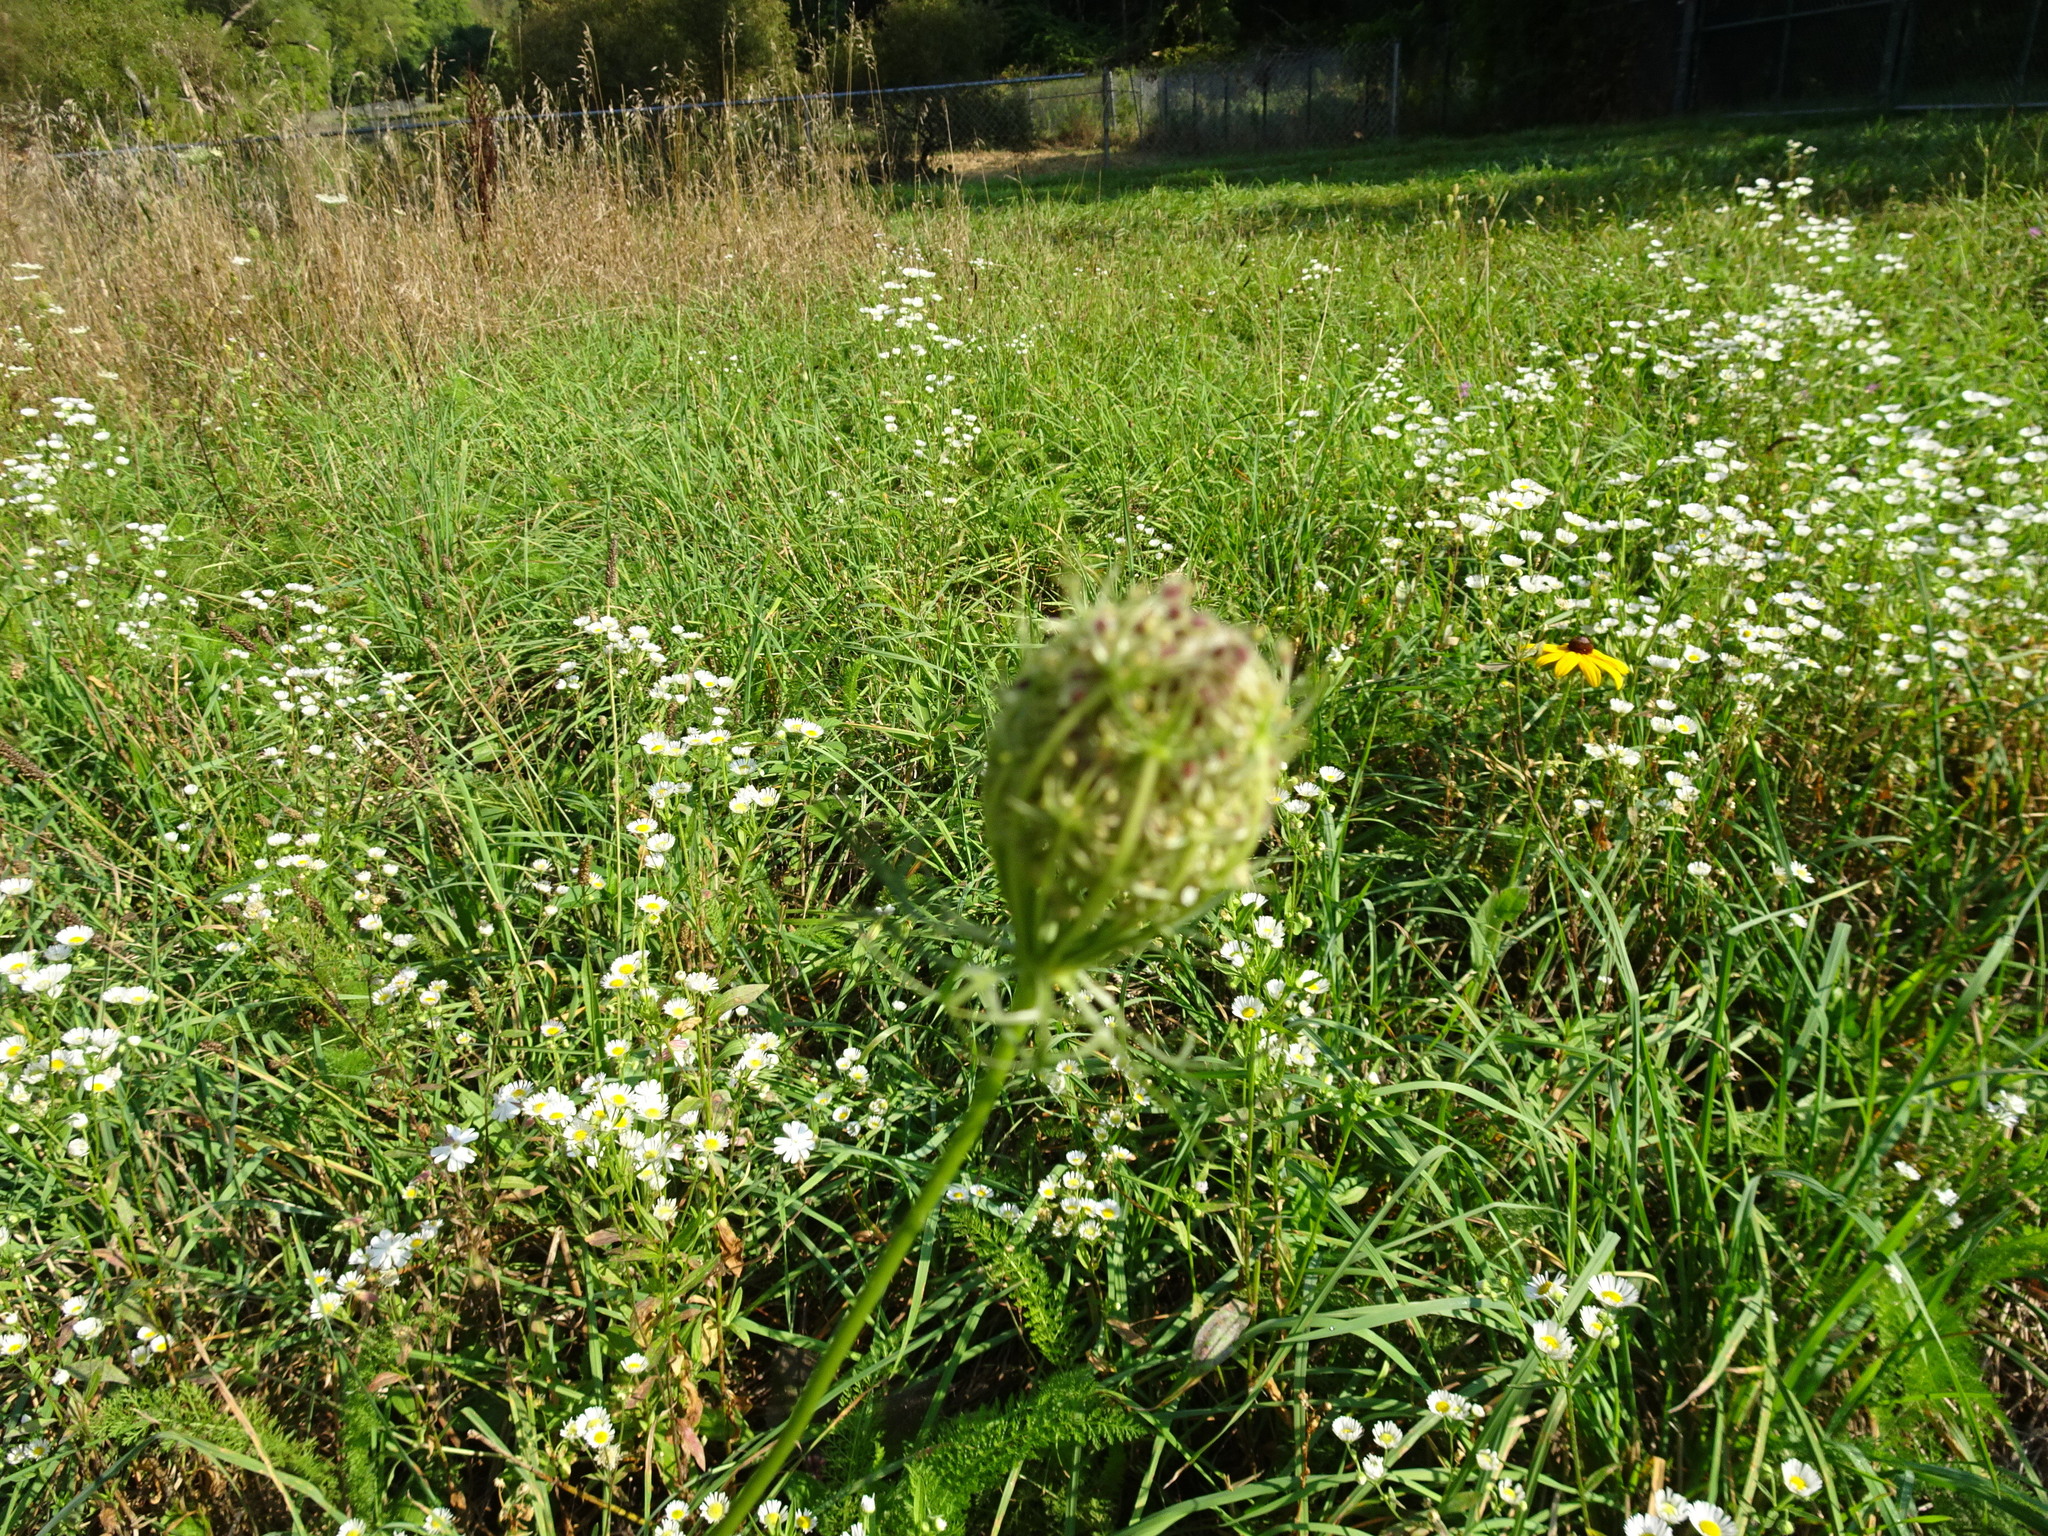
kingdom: Plantae
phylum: Tracheophyta
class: Magnoliopsida
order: Apiales
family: Apiaceae
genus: Daucus
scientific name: Daucus carota
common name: Wild carrot
